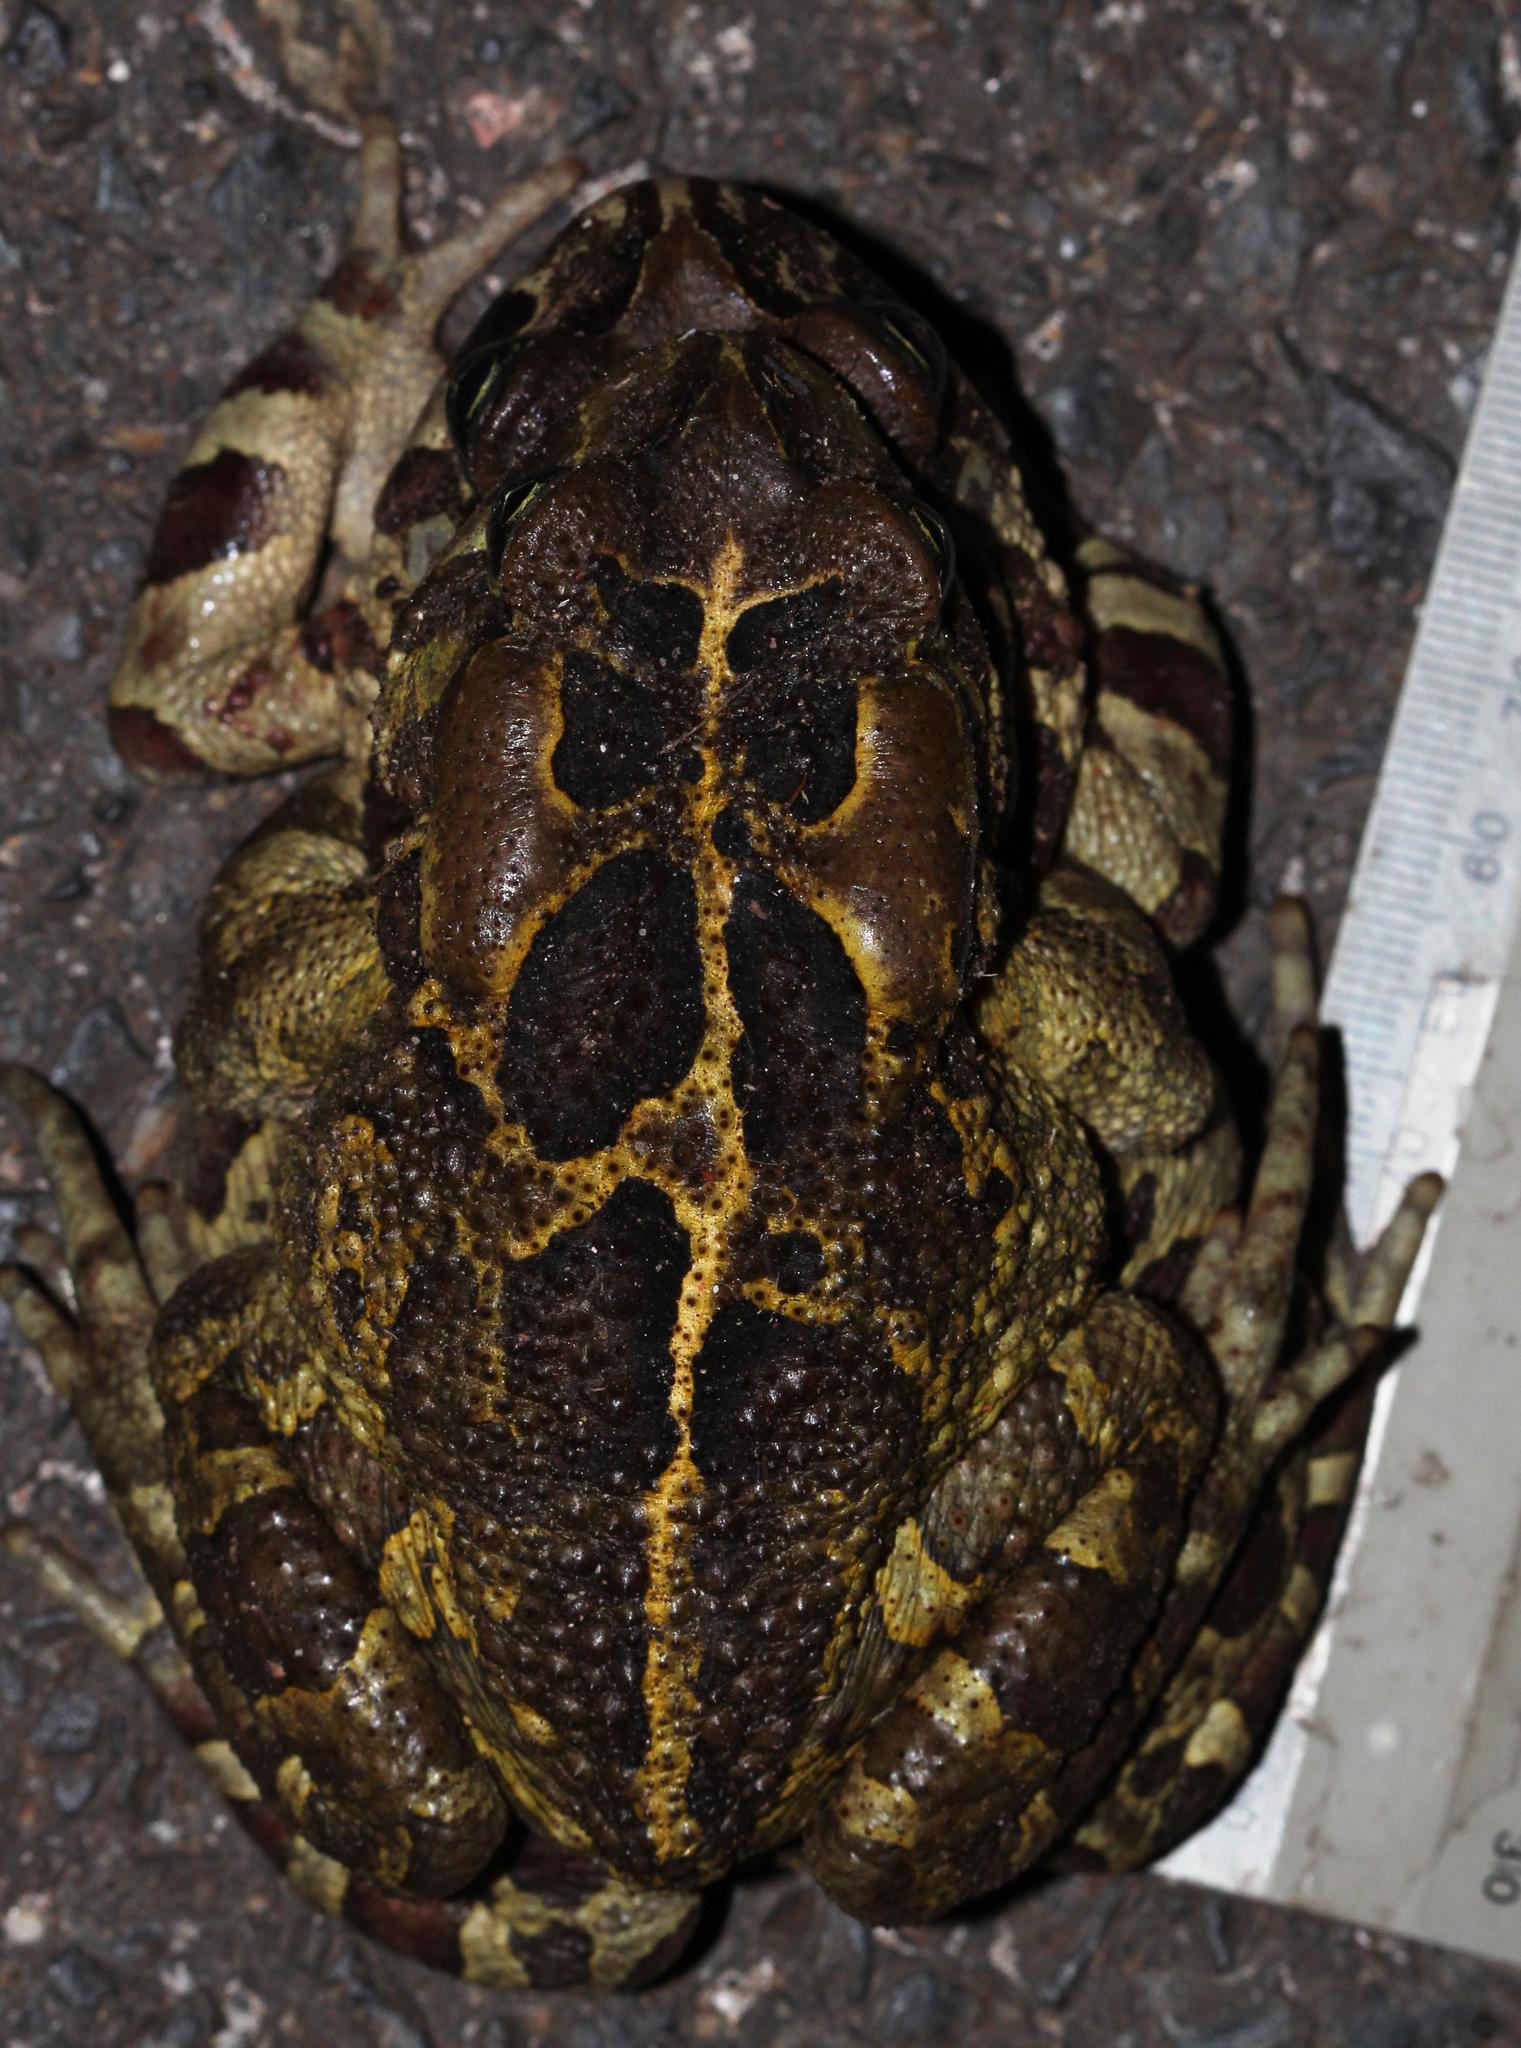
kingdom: Animalia
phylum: Chordata
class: Amphibia
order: Anura
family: Bufonidae
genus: Sclerophrys
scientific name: Sclerophrys pantherina
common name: Panther toad
